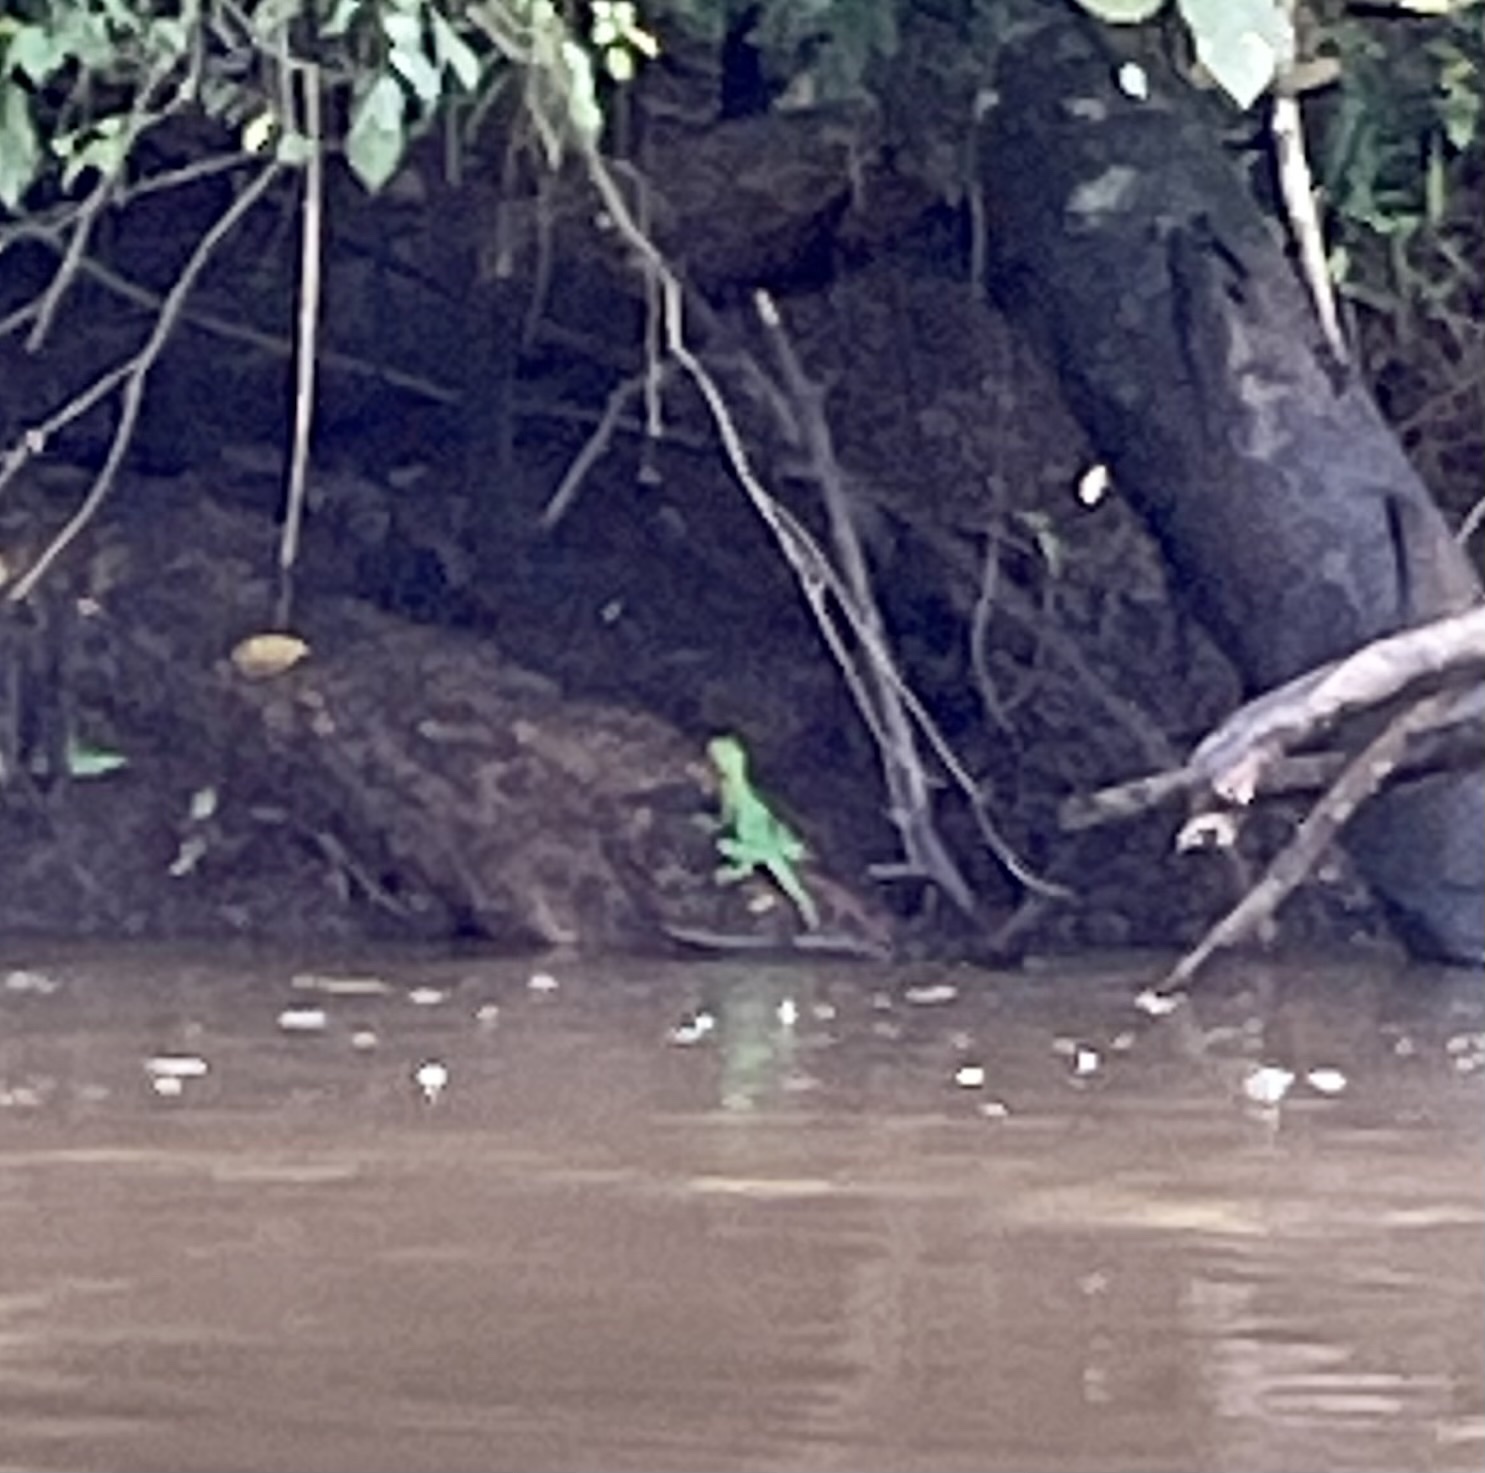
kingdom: Animalia
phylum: Chordata
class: Squamata
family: Corytophanidae
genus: Basiliscus
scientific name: Basiliscus plumifrons
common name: Green basilisk
